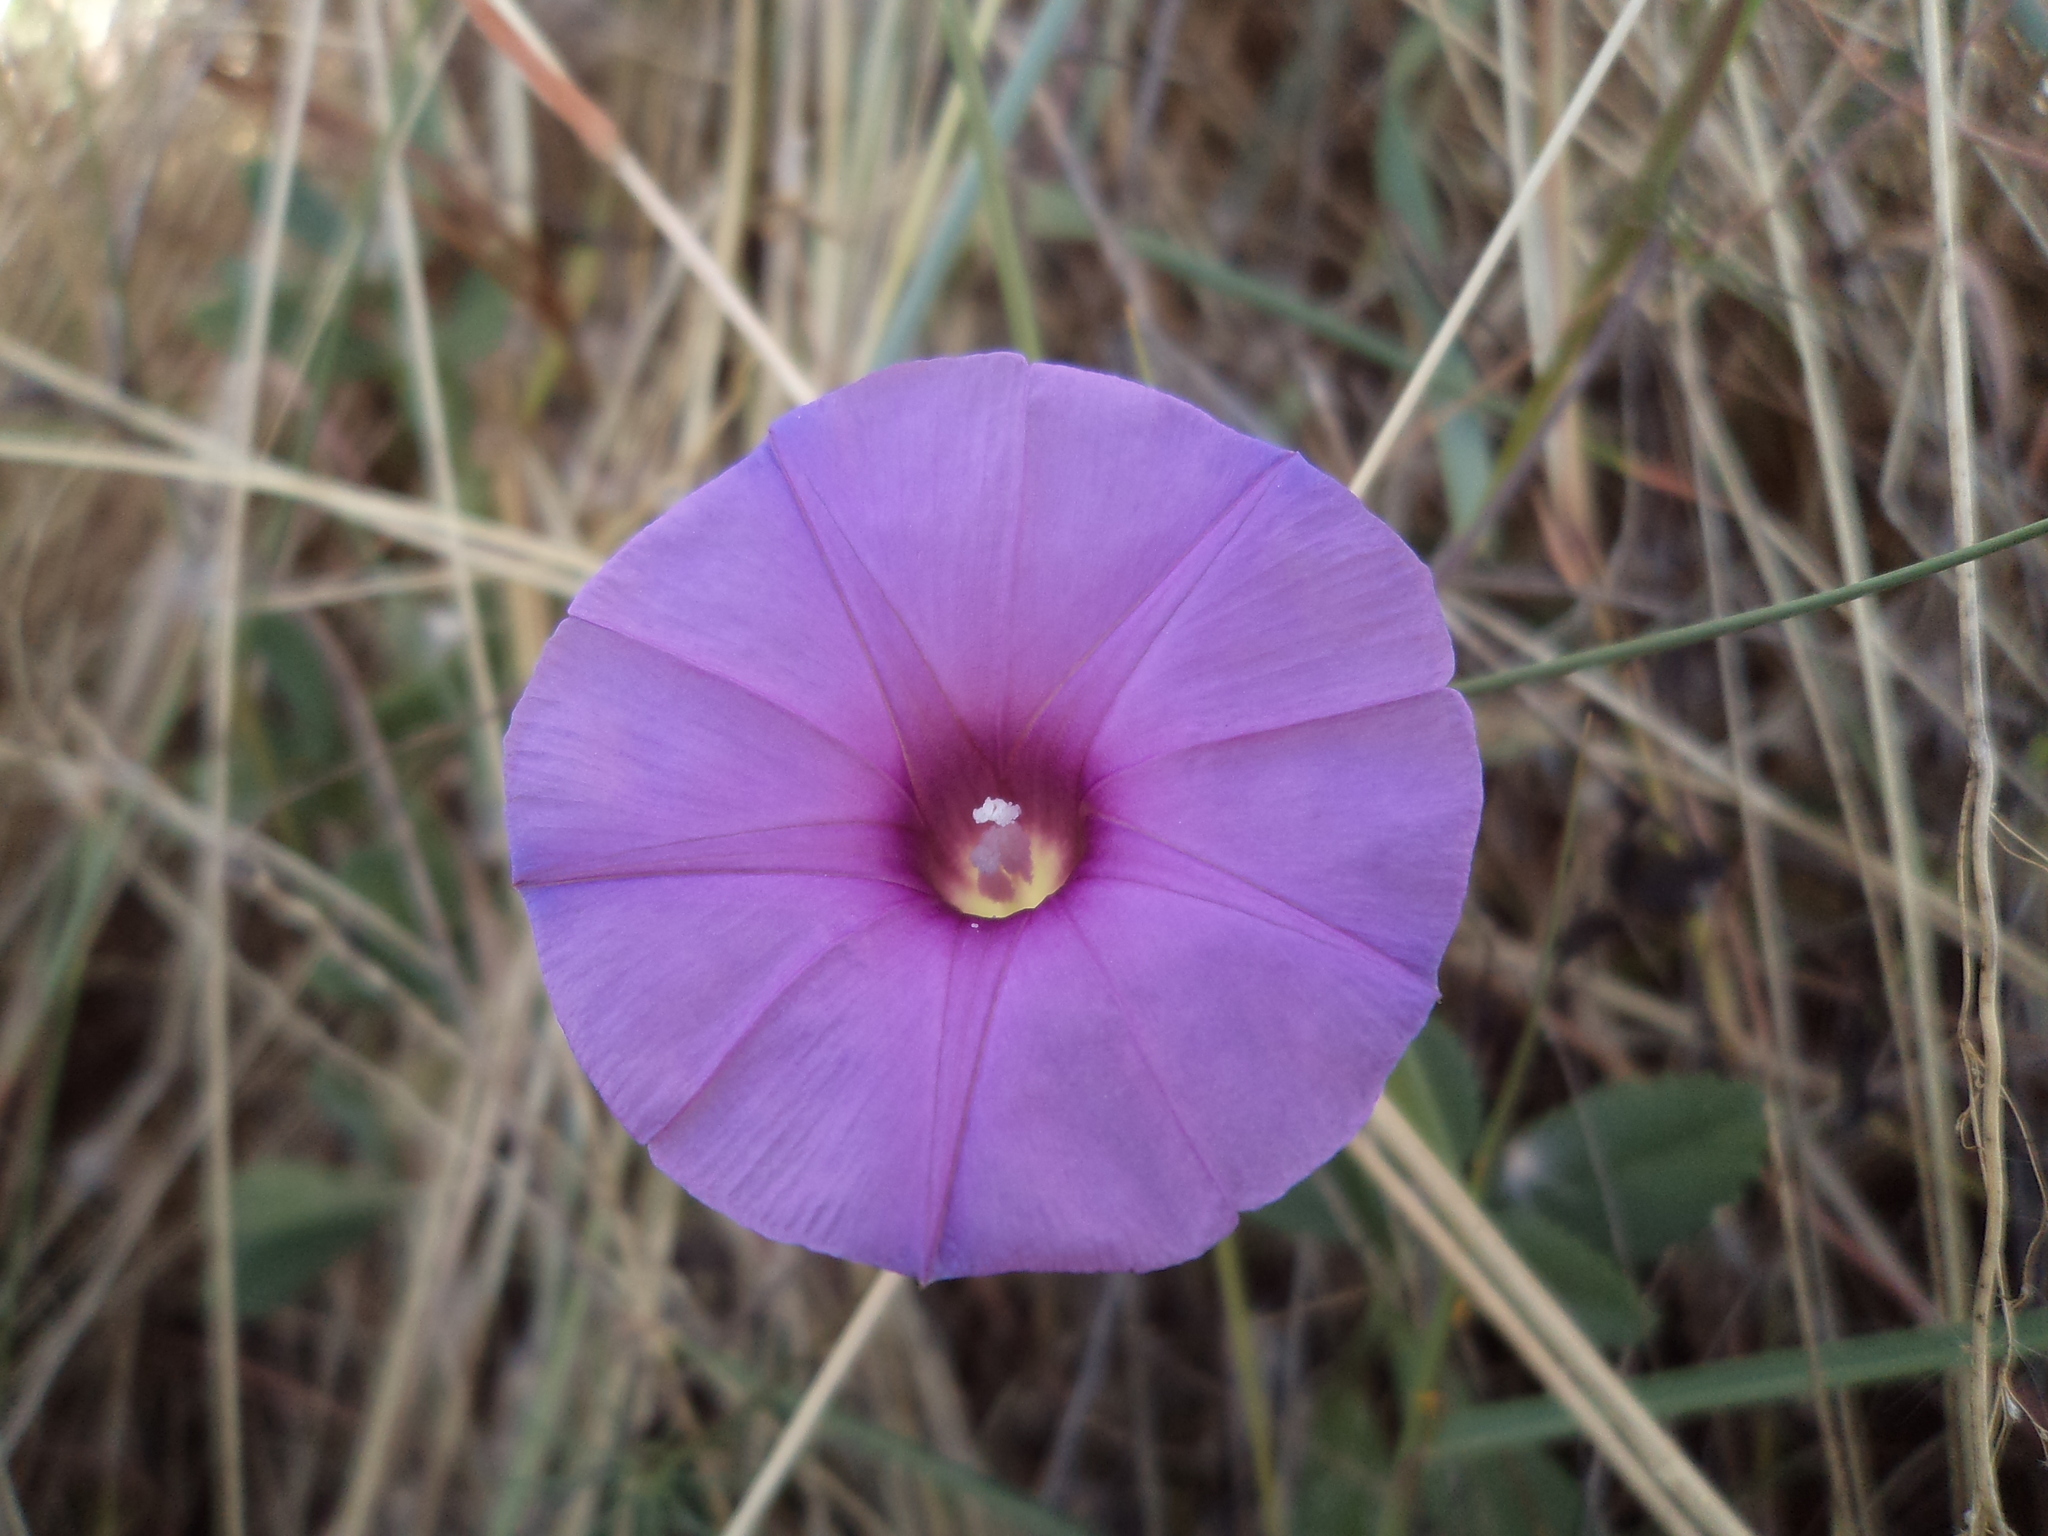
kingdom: Plantae
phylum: Tracheophyta
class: Magnoliopsida
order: Solanales
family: Convolvulaceae
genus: Ipomoea
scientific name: Ipomoea ternifolia
